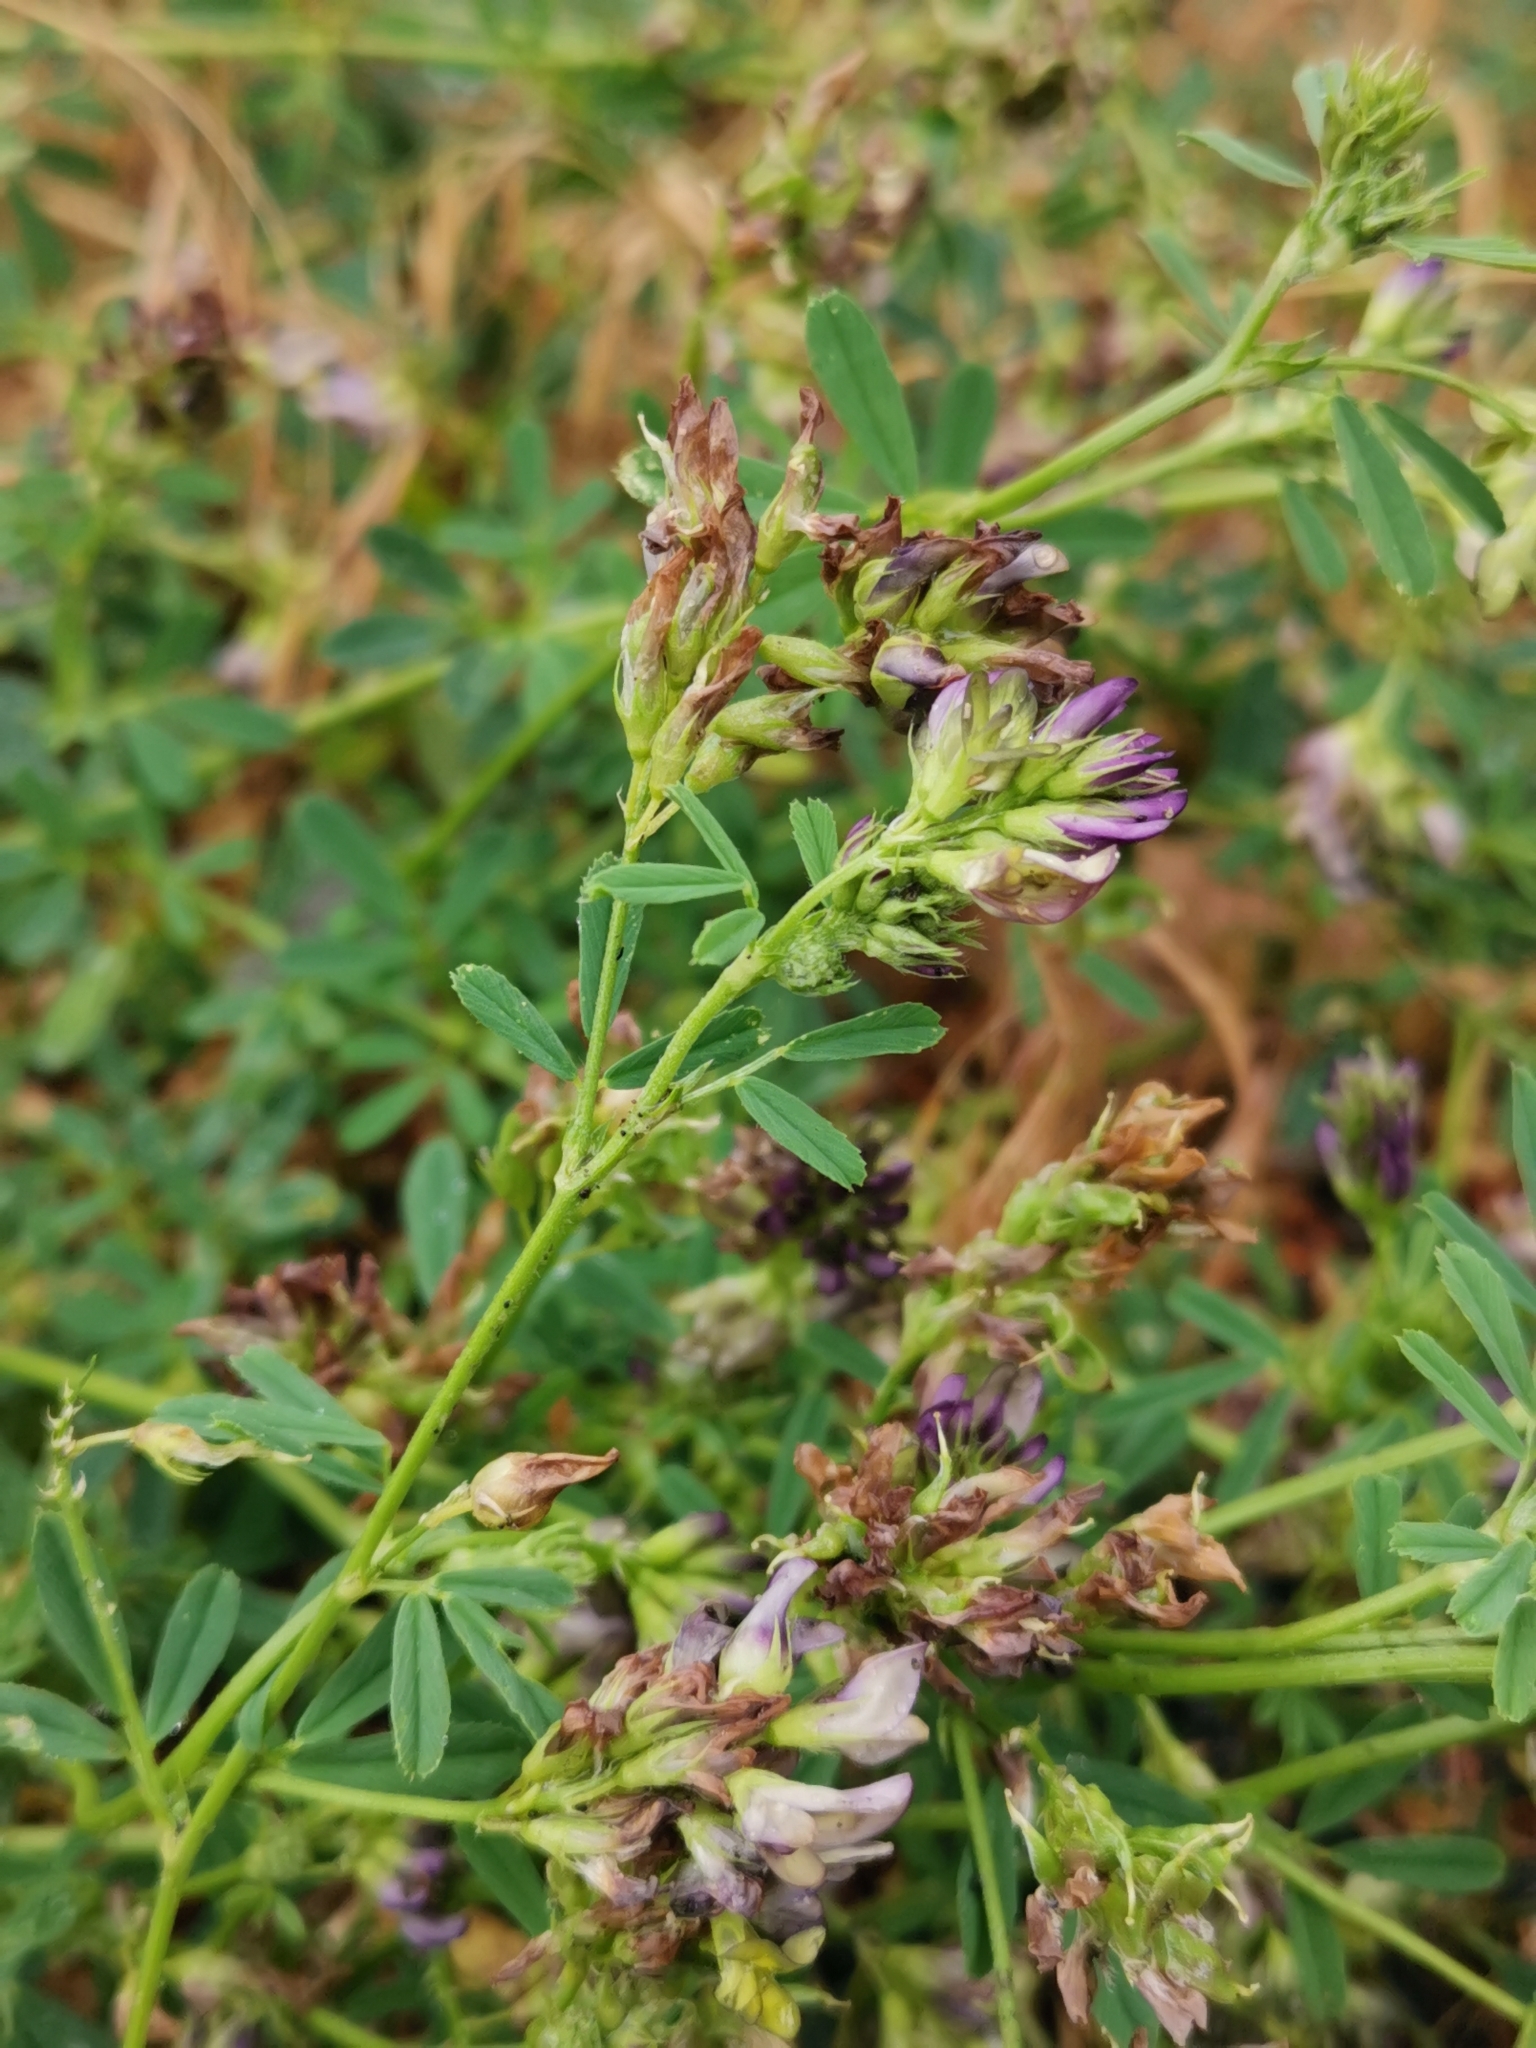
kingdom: Plantae
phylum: Tracheophyta
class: Magnoliopsida
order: Fabales
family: Fabaceae
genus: Medicago
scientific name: Medicago varia
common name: Sand lucerne
